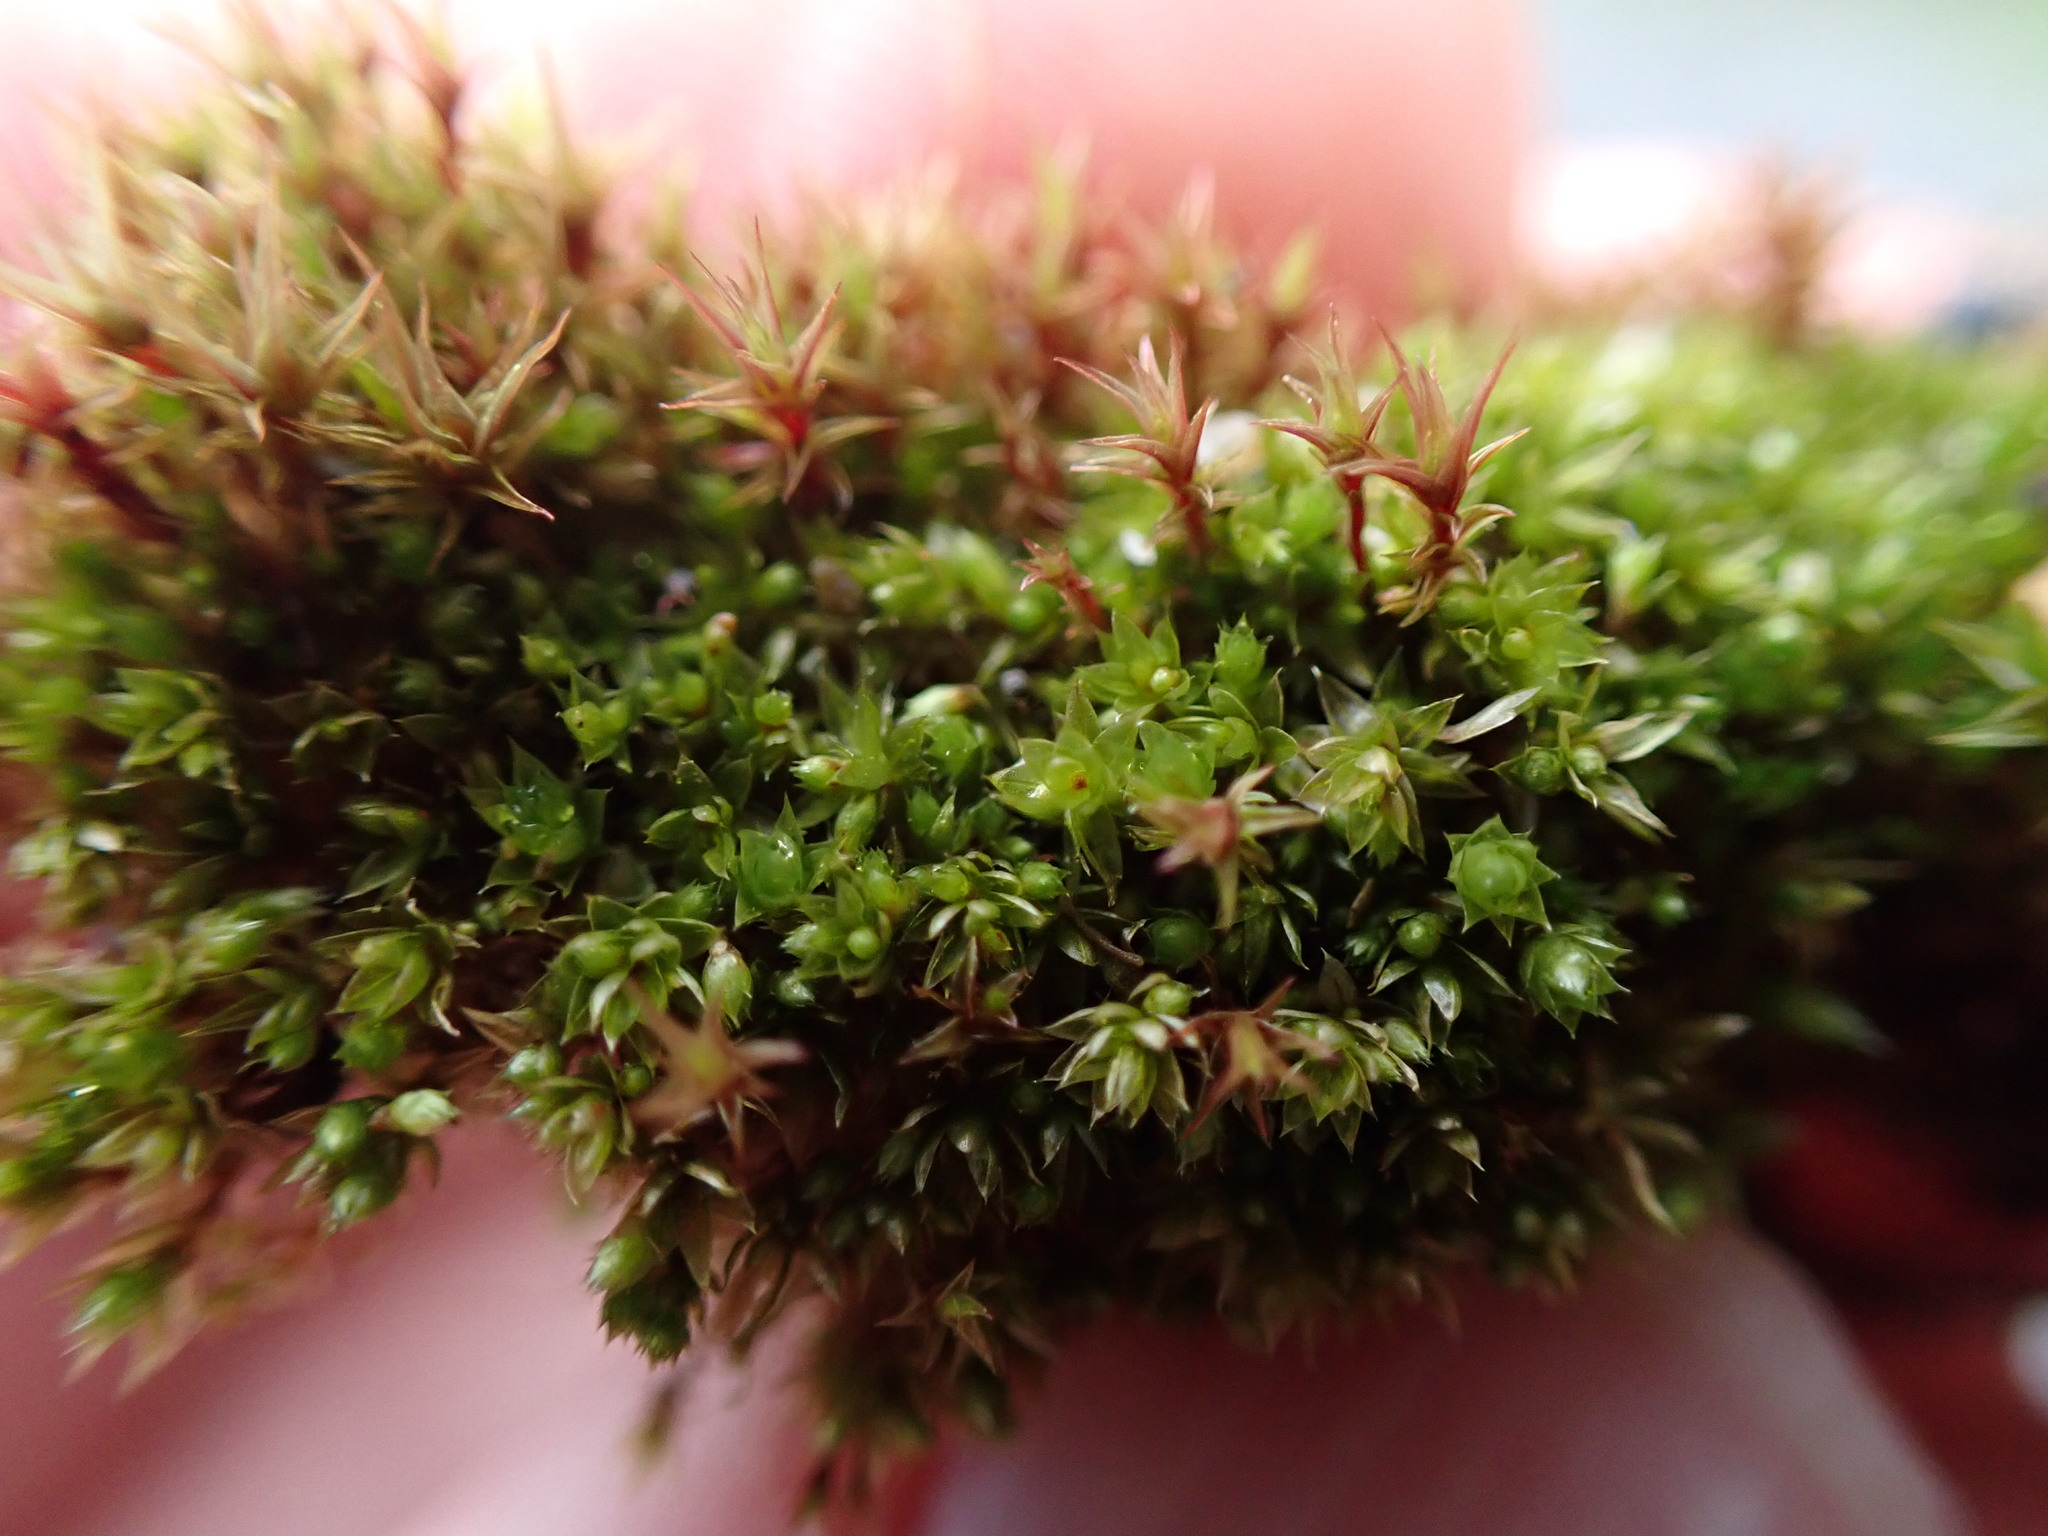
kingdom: Plantae
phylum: Bryophyta
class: Bryopsida
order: Bryales
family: Bryaceae
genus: Gemmabryum
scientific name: Gemmabryum dichotomum
